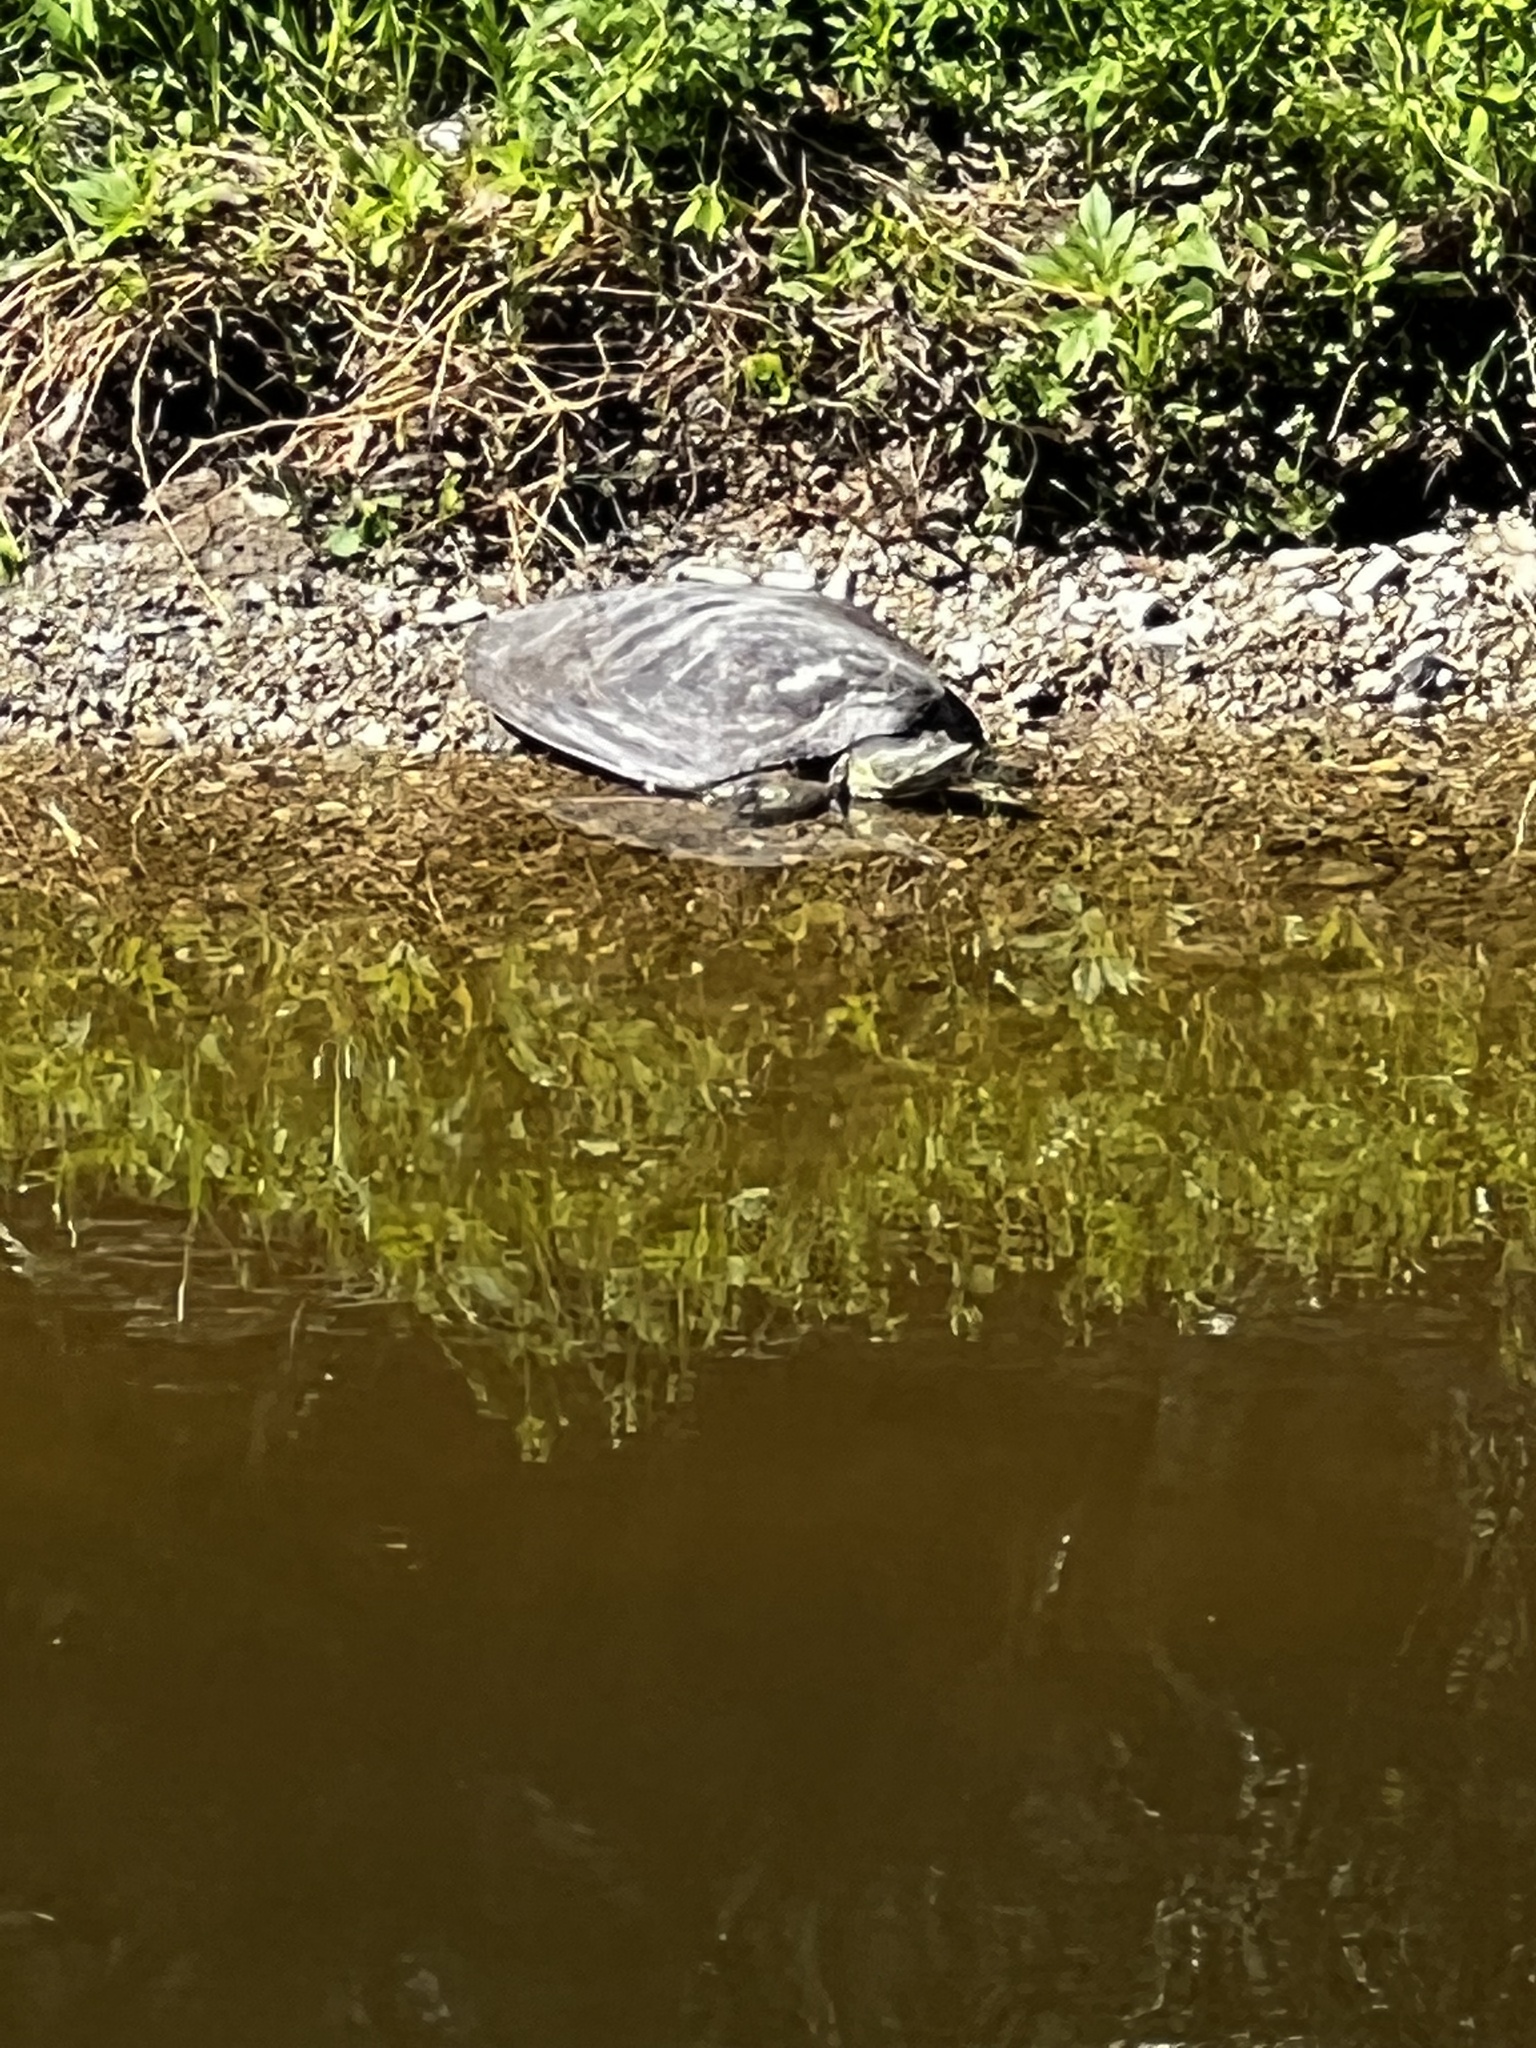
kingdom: Animalia
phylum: Chordata
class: Testudines
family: Trionychidae
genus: Apalone
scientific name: Apalone spinifera
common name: Spiny softshell turtle
